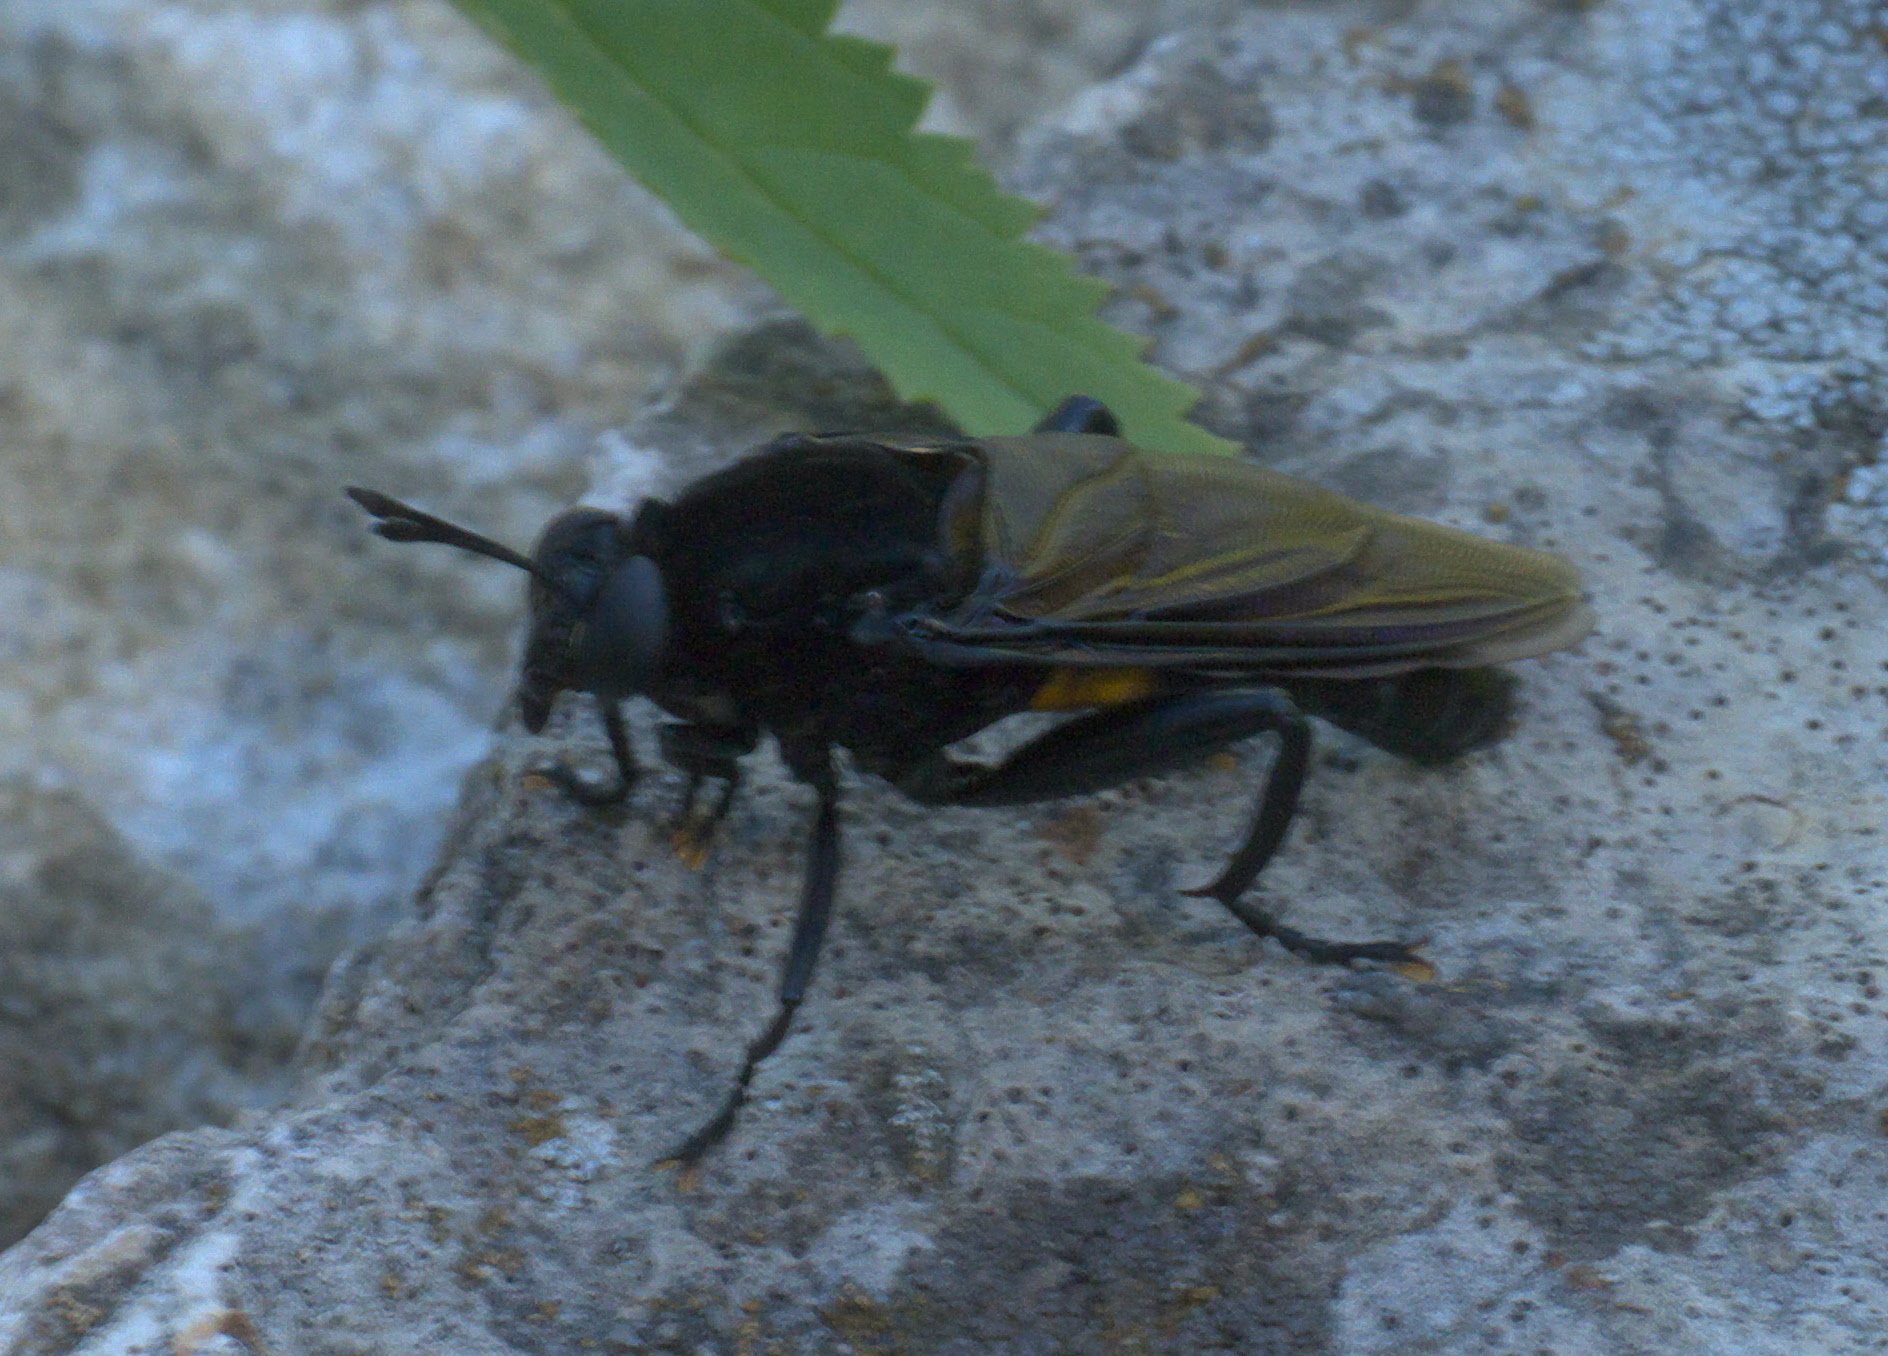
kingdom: Animalia
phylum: Arthropoda
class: Insecta
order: Diptera
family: Mydidae
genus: Mydas
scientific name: Mydas clavatus
